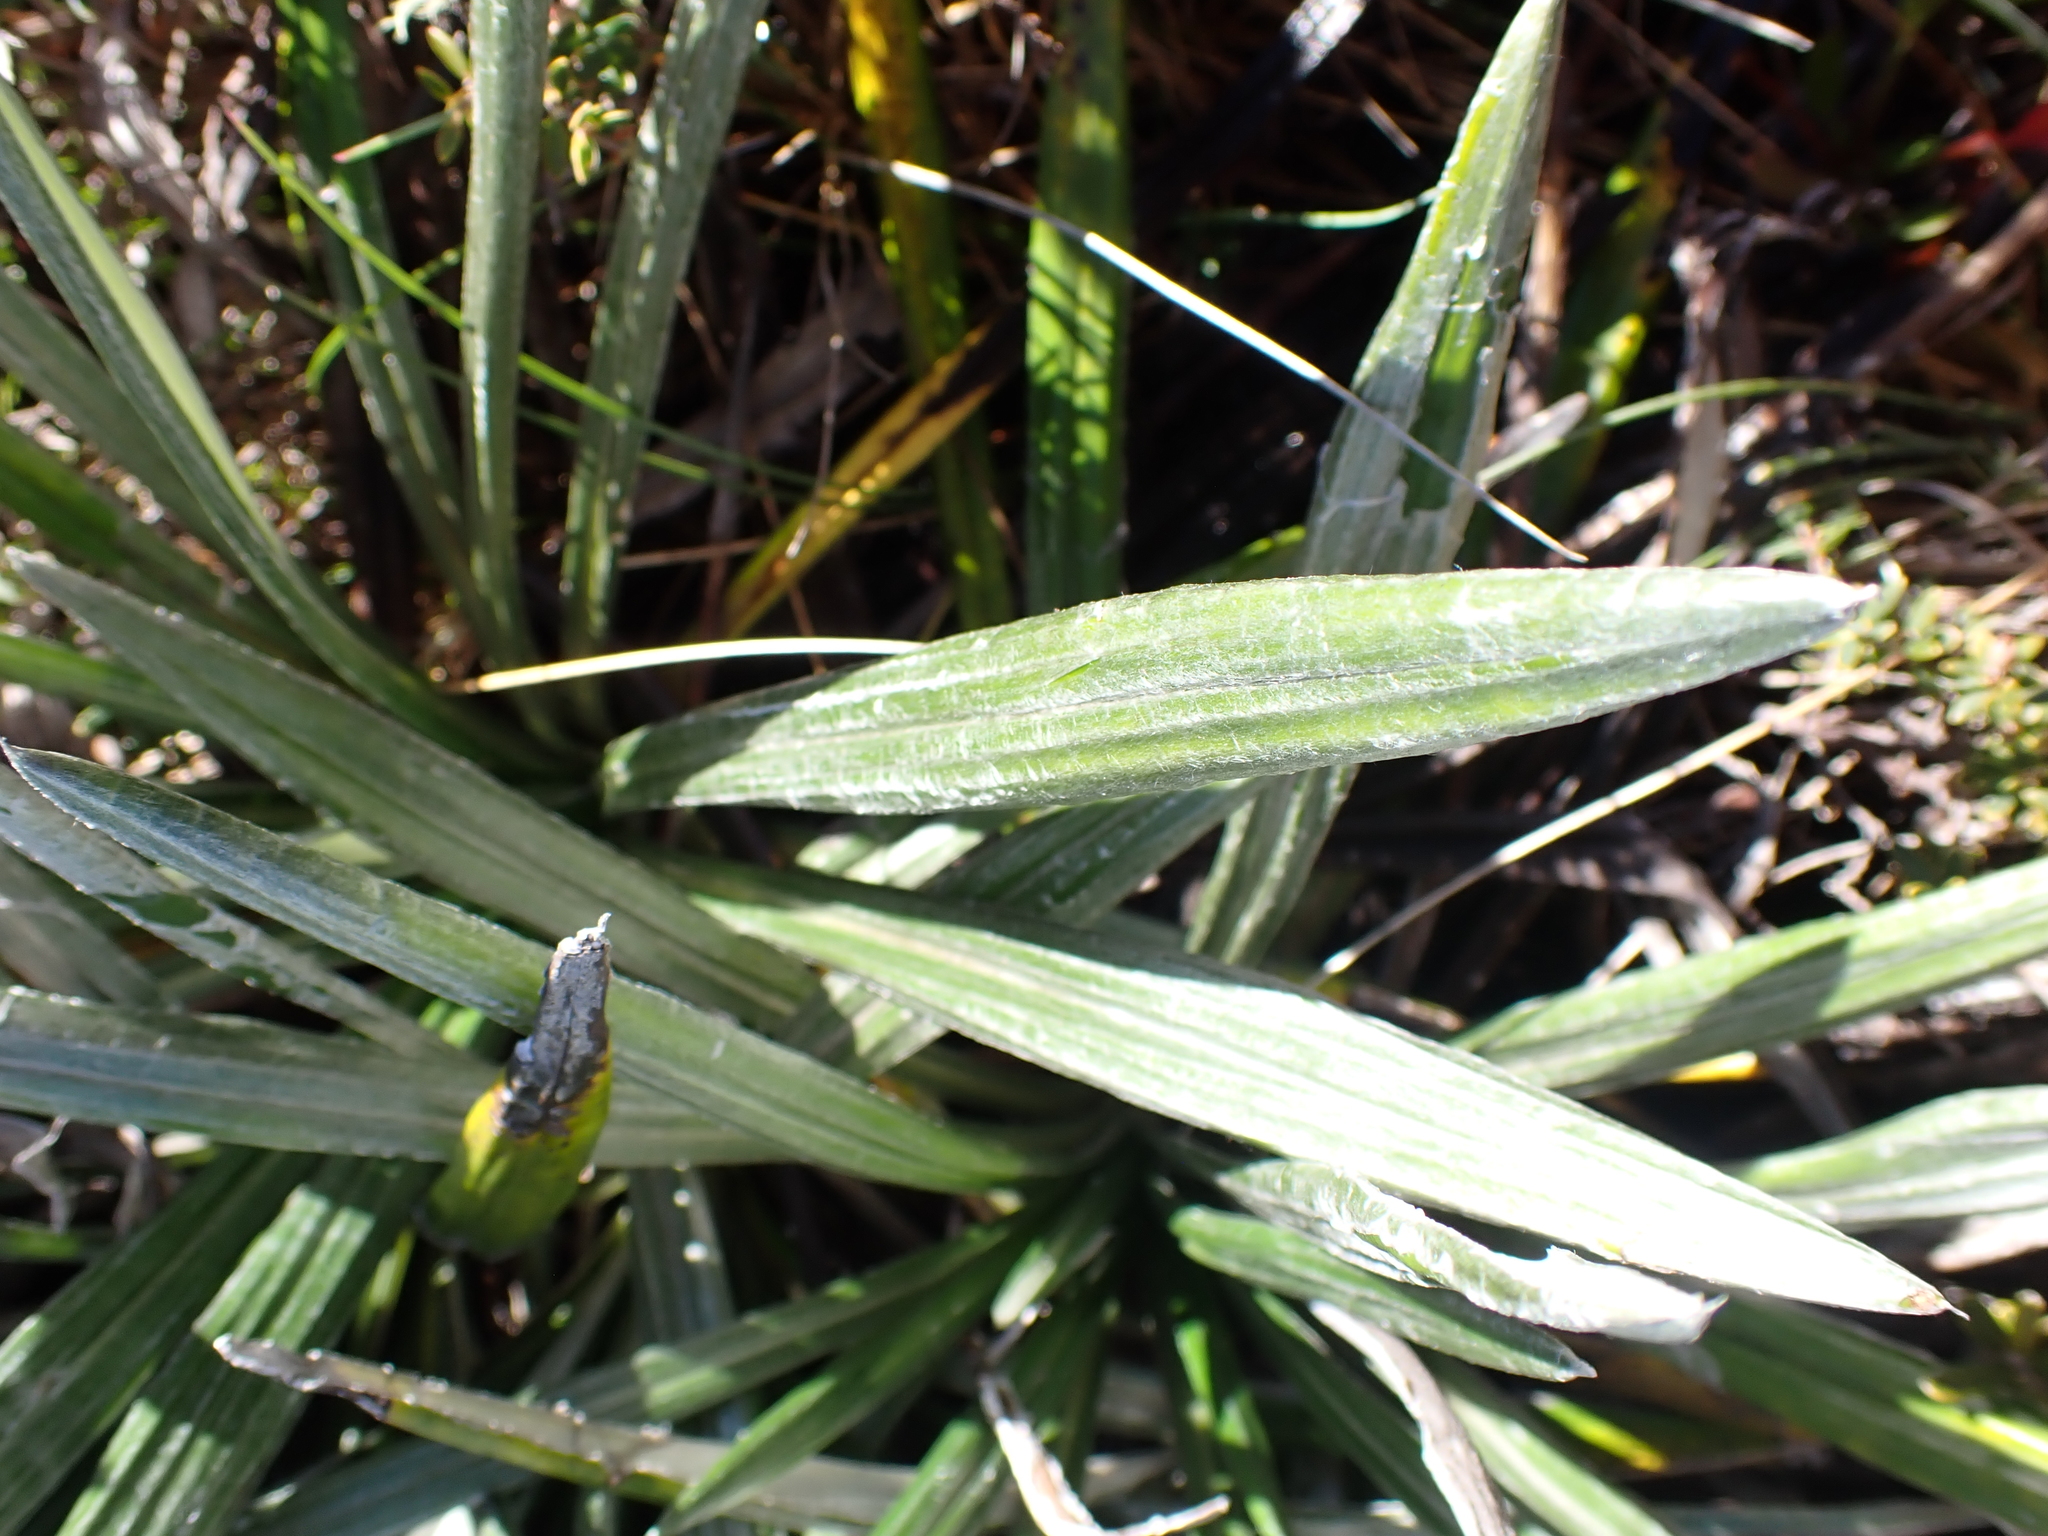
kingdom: Plantae
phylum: Tracheophyta
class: Magnoliopsida
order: Asterales
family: Asteraceae
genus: Celmisia
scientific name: Celmisia tomentella
